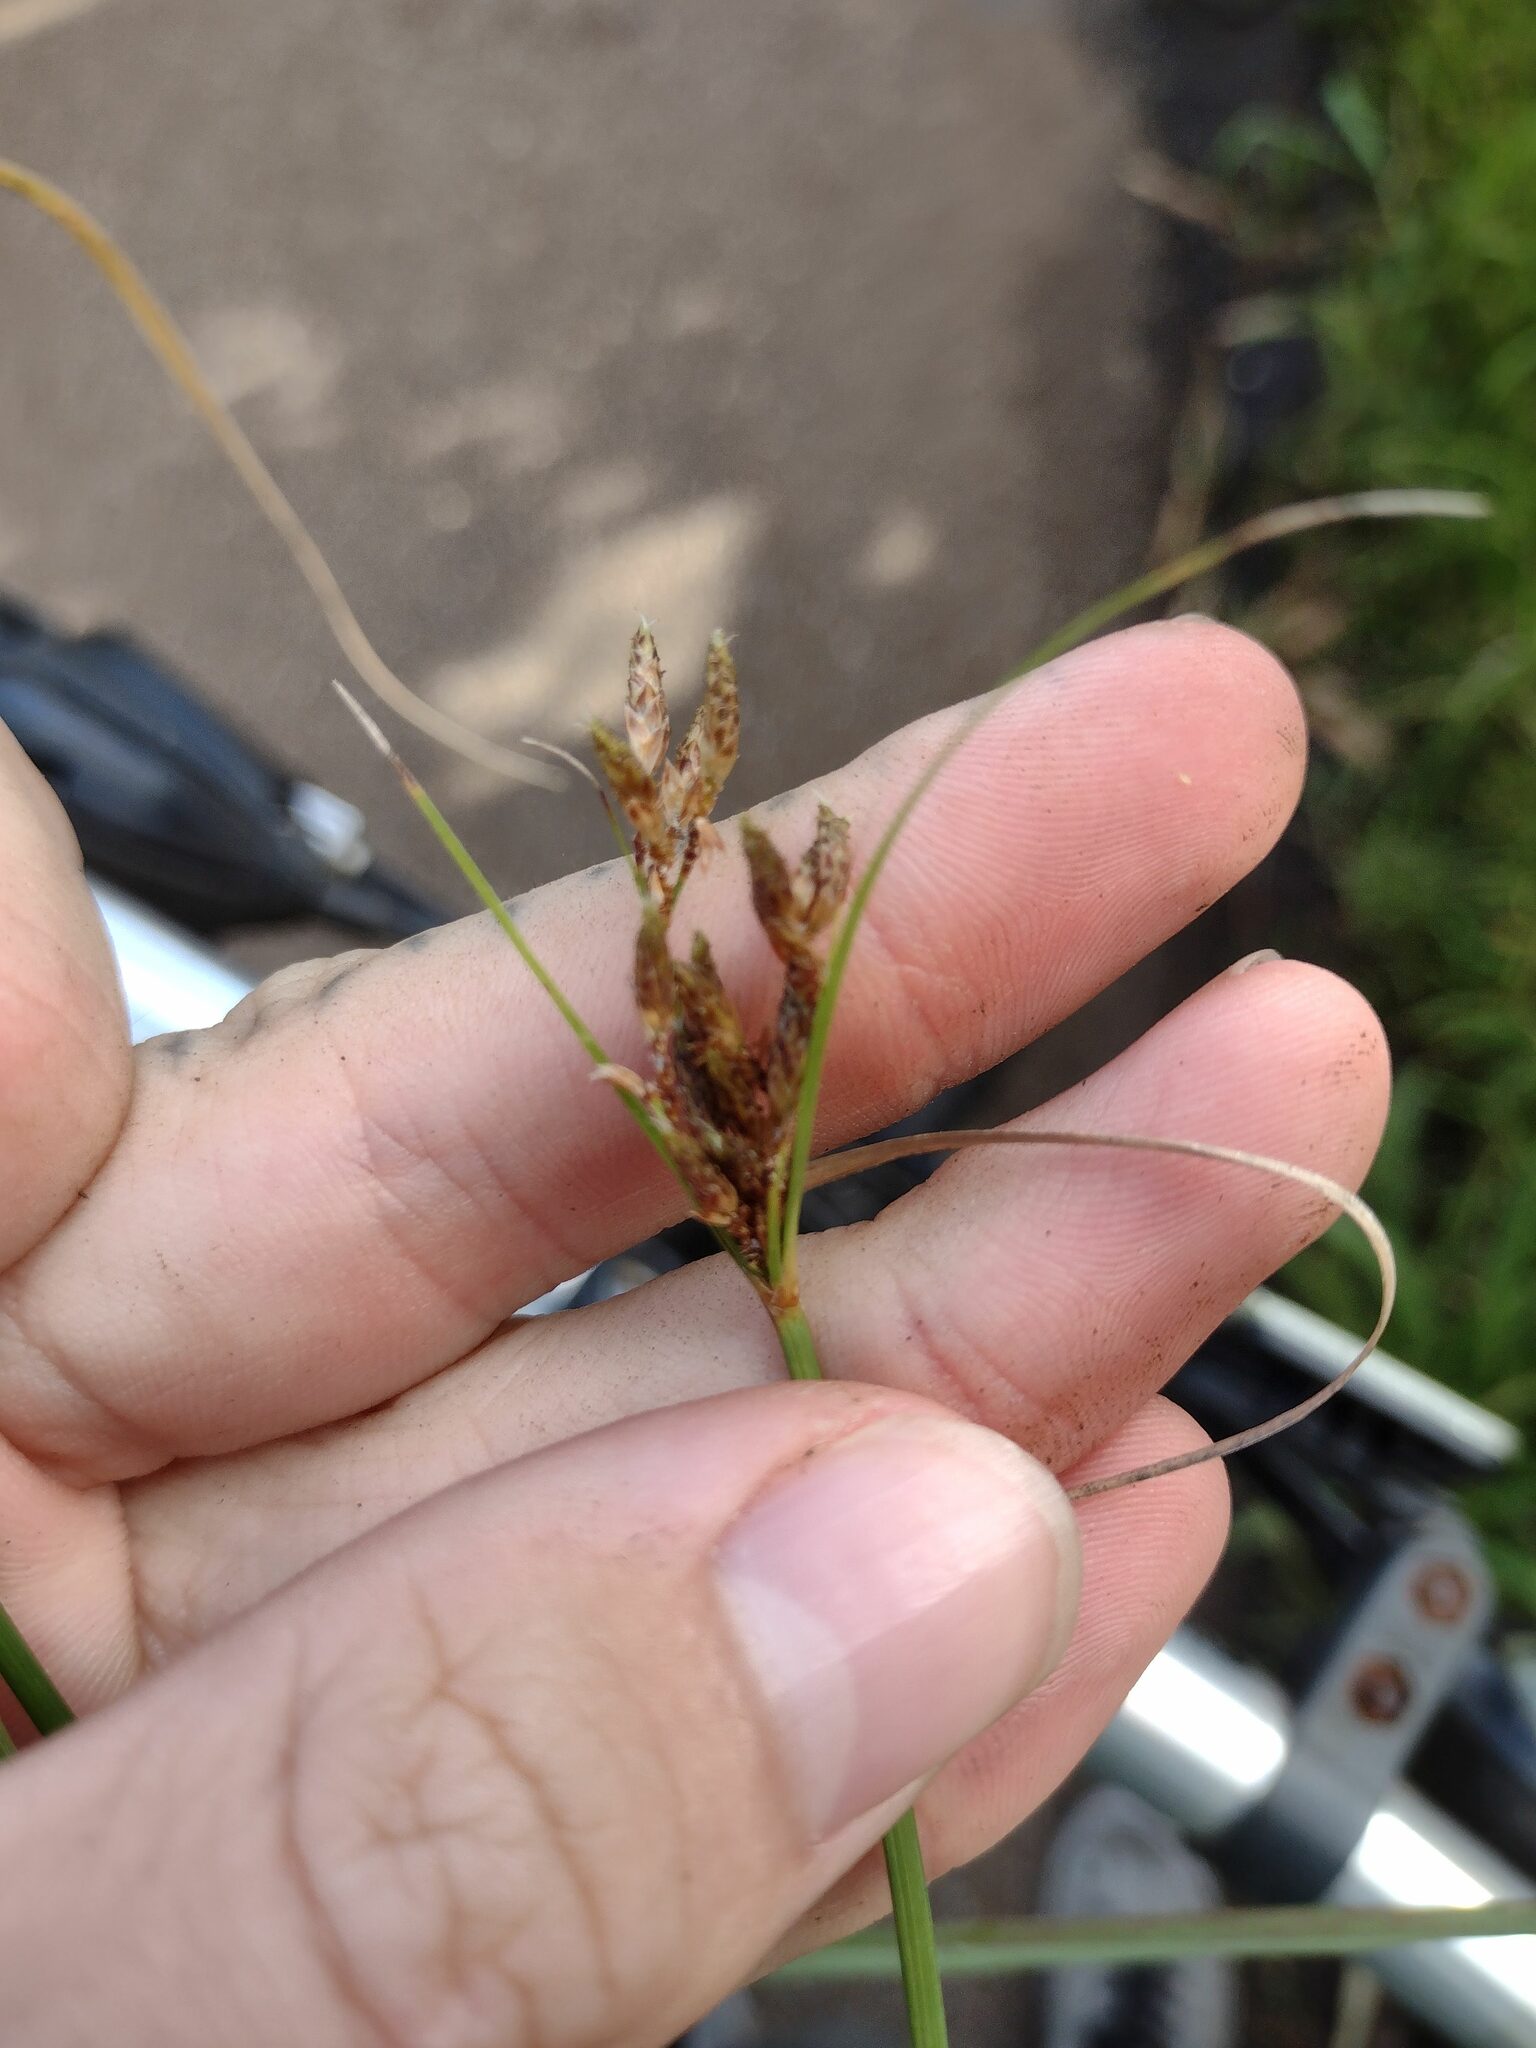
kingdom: Plantae
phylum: Tracheophyta
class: Liliopsida
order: Poales
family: Cyperaceae
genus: Fimbristylis
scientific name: Fimbristylis dichotoma
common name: Forked fimbry
